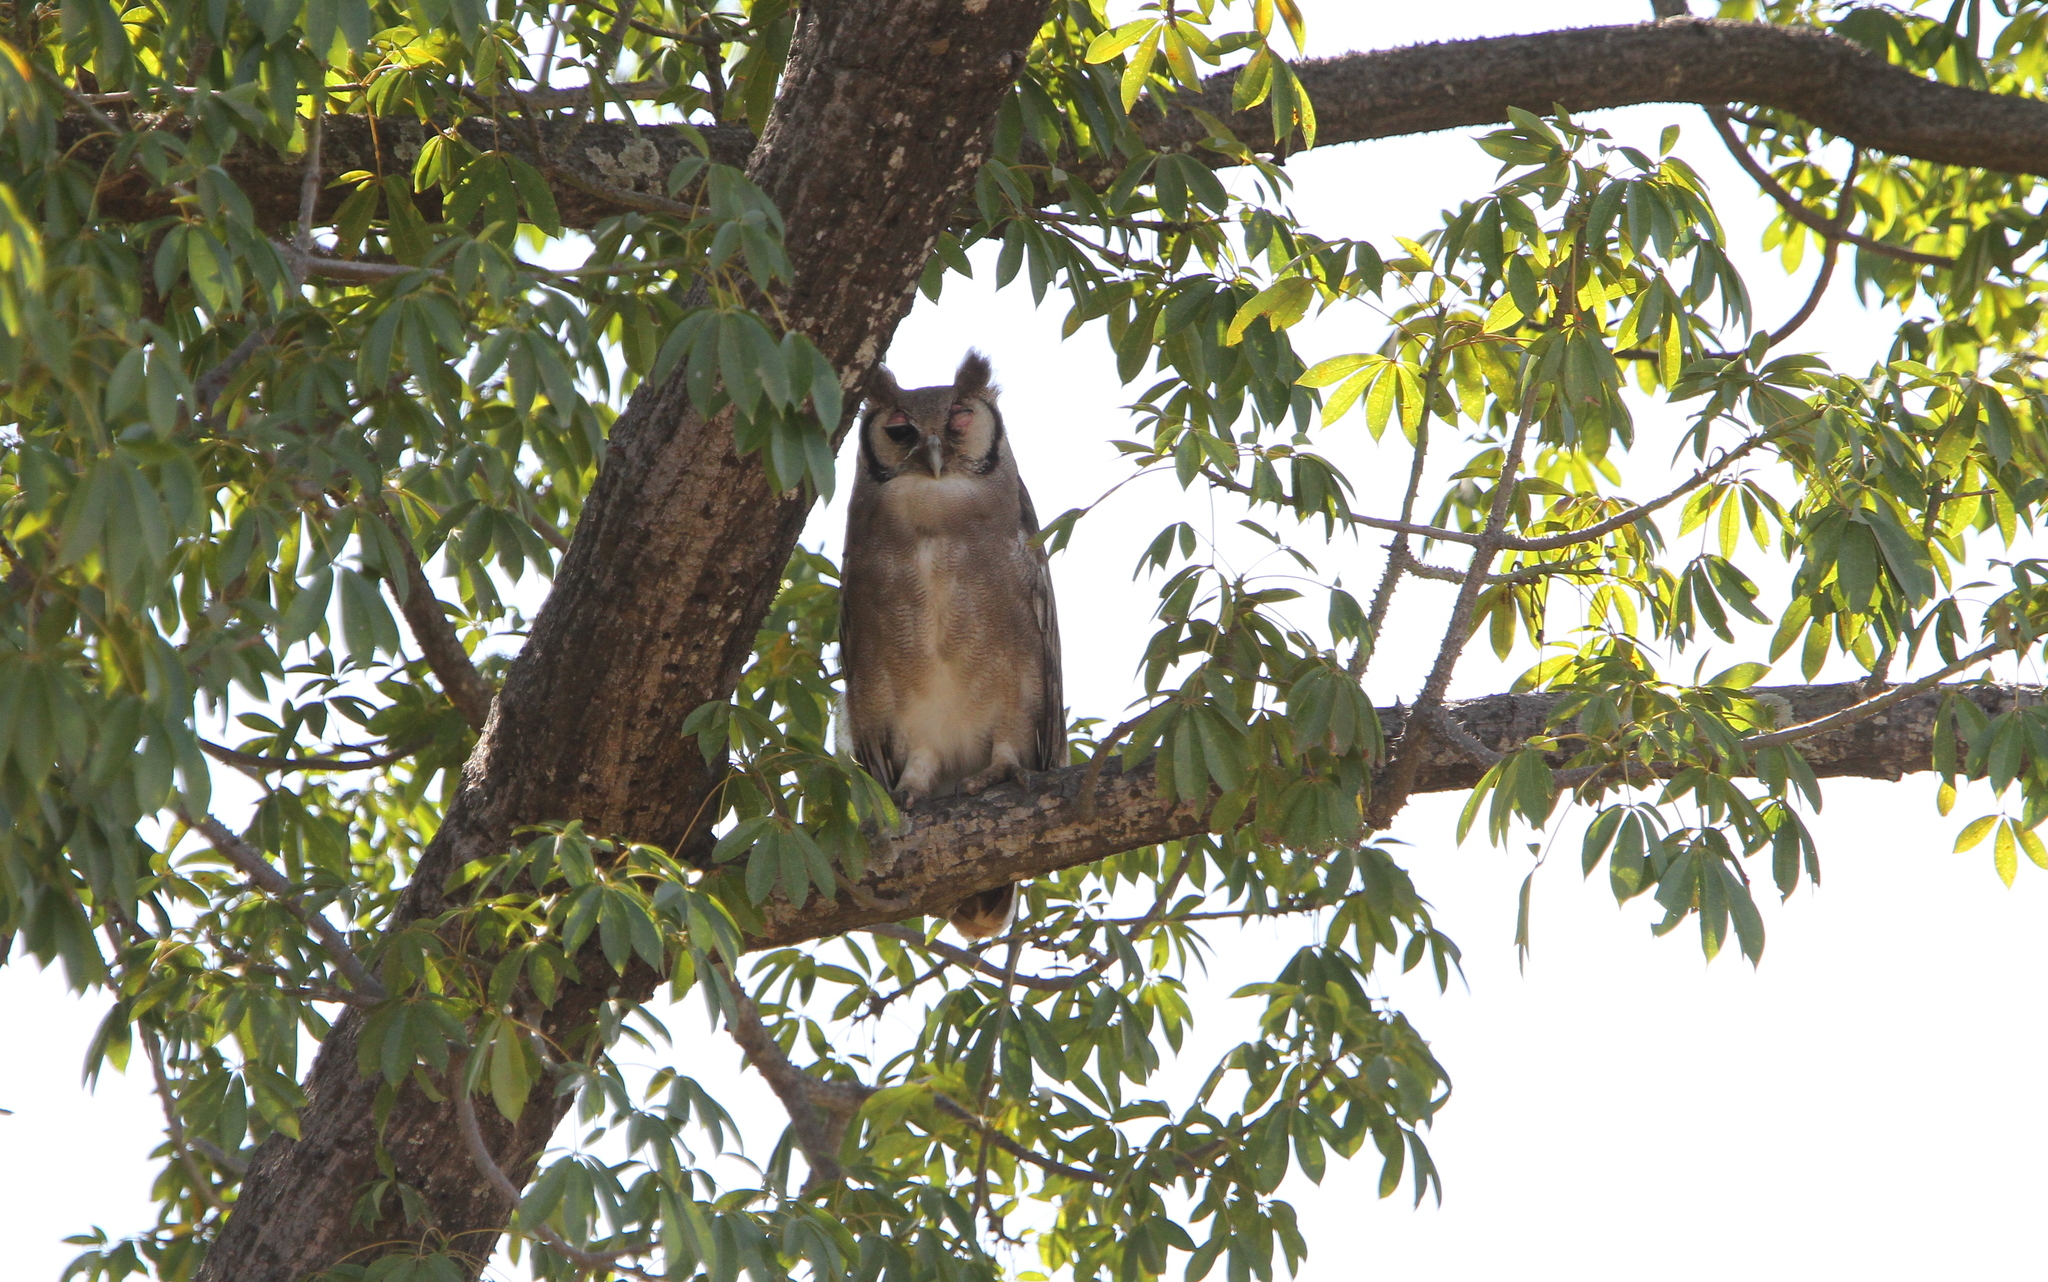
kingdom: Animalia
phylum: Chordata
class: Aves
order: Strigiformes
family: Strigidae
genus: Bubo
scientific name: Bubo lacteus
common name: Verreaux's eagle-owl
